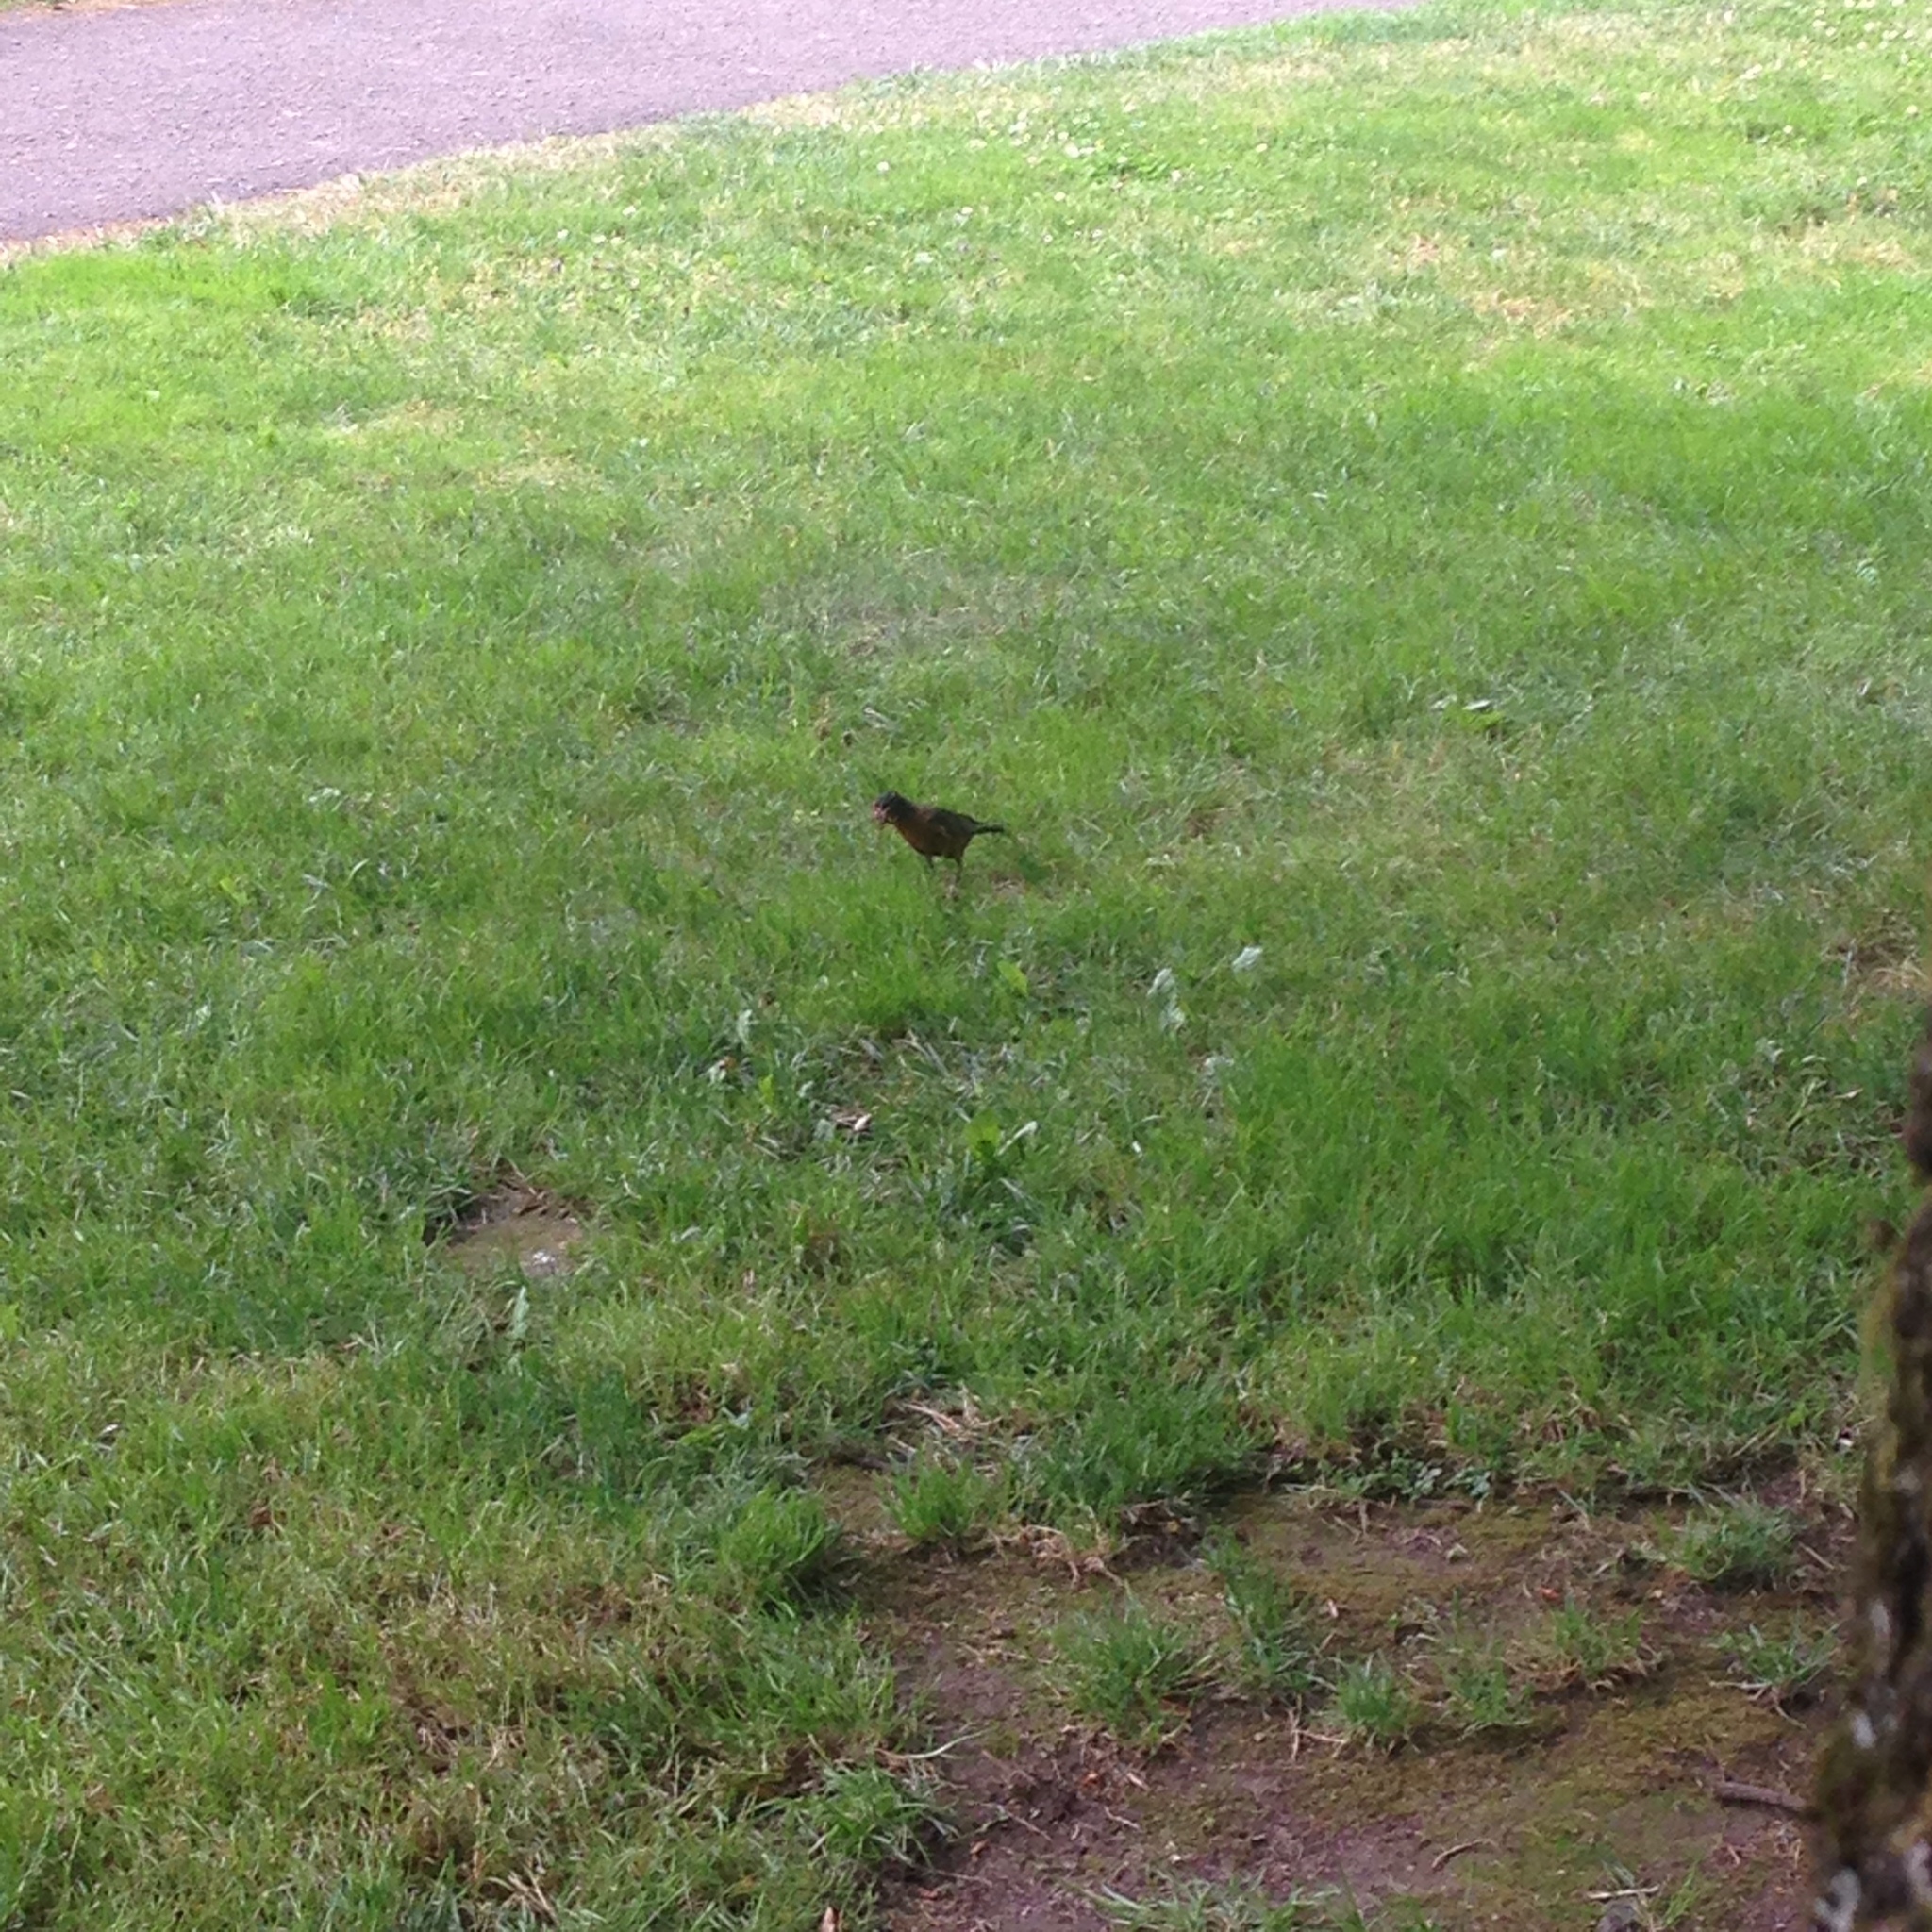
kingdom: Animalia
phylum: Chordata
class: Aves
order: Passeriformes
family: Turdidae
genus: Turdus
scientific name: Turdus migratorius
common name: American robin
